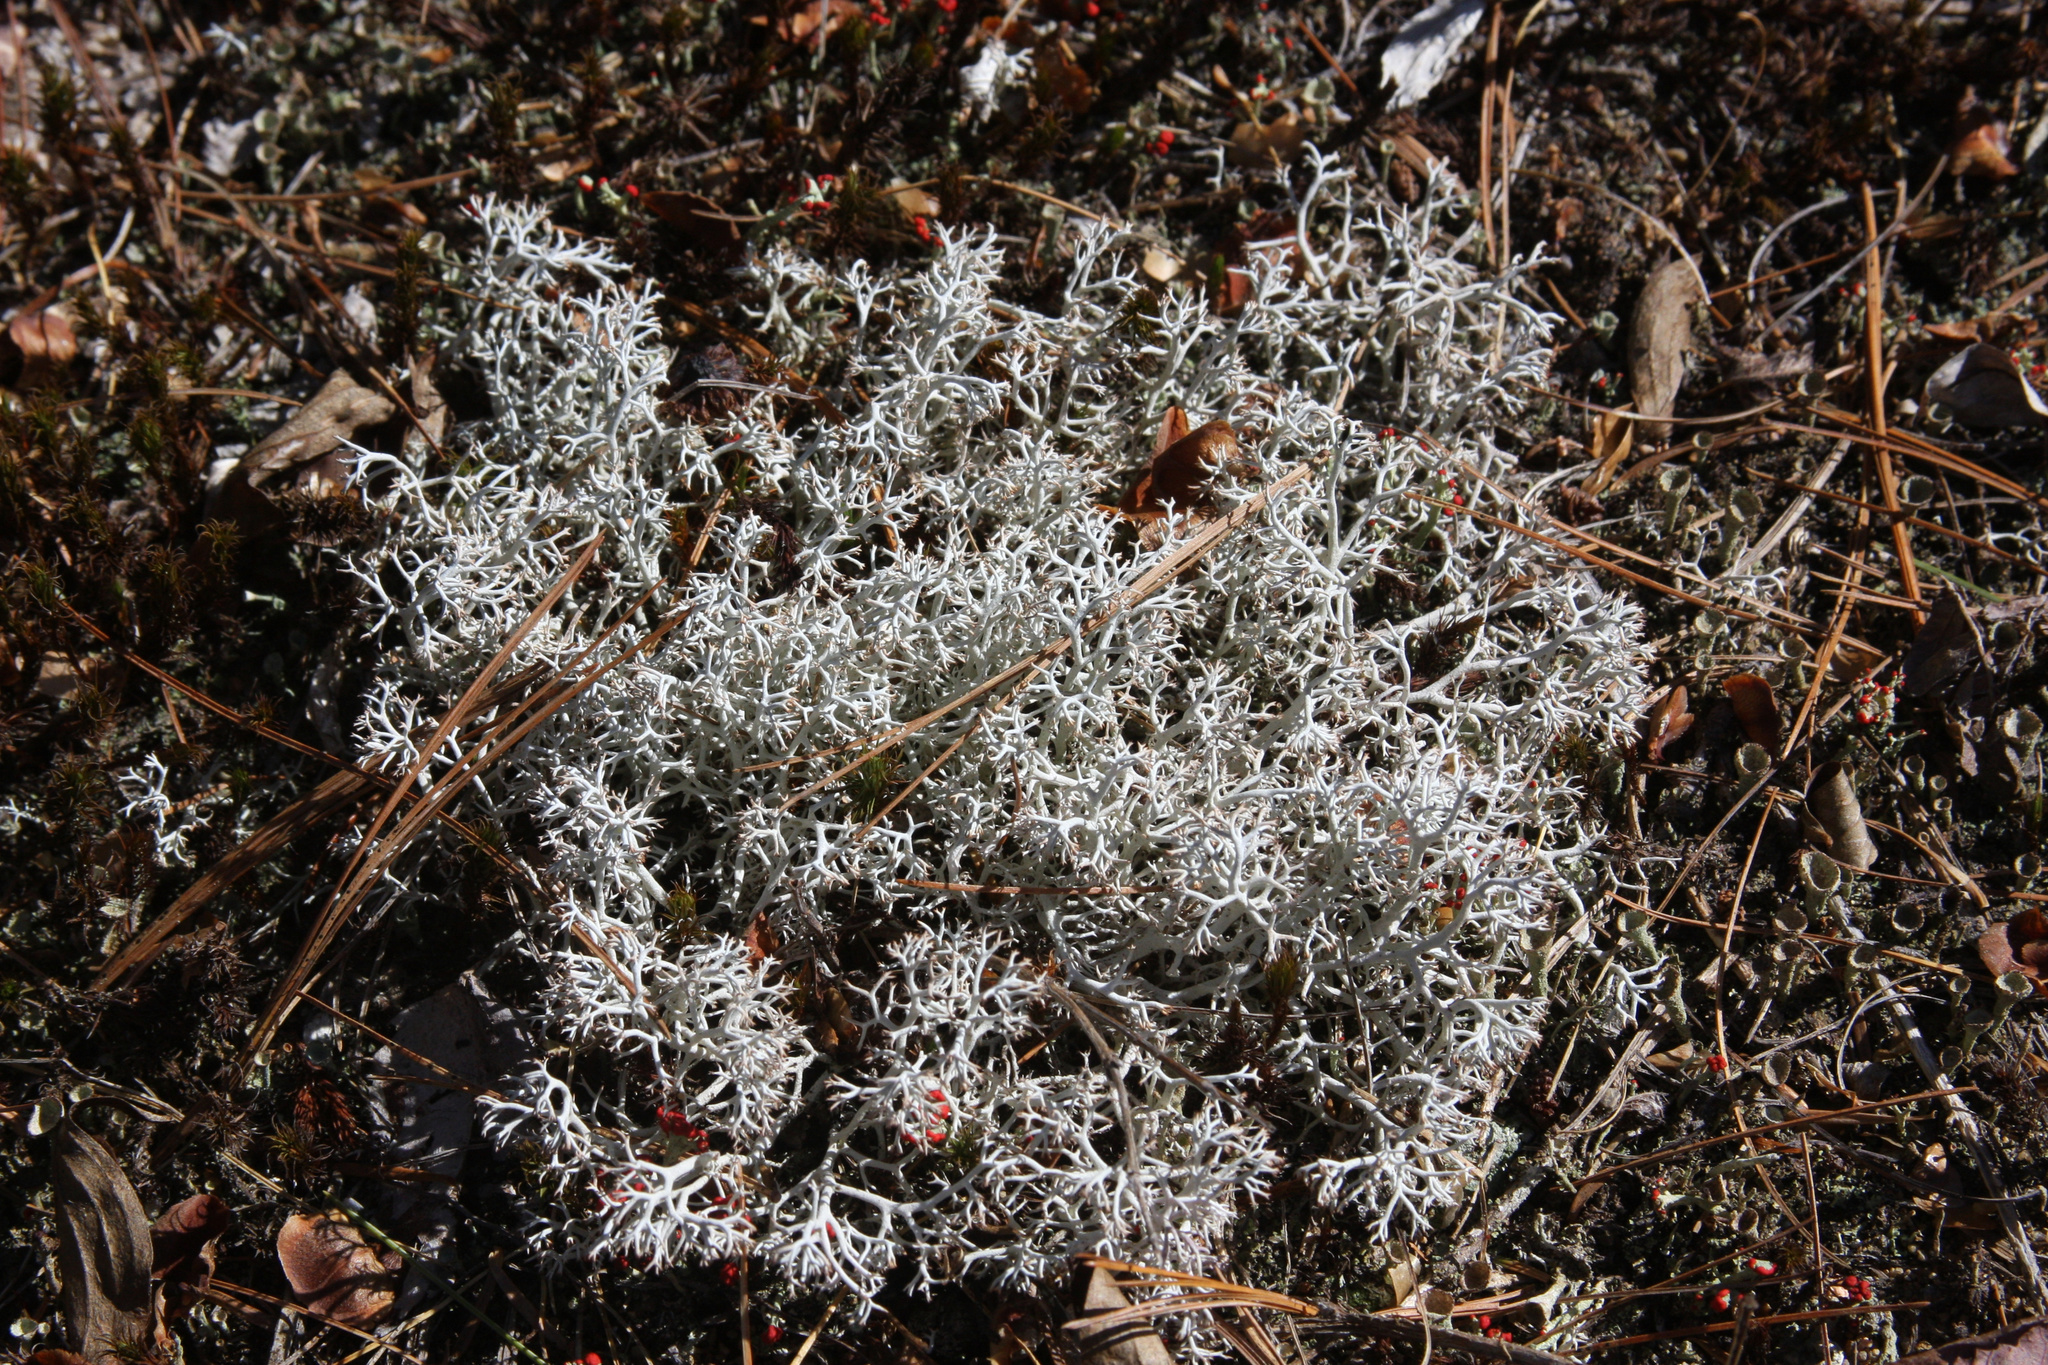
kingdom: Fungi
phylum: Ascomycota
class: Lecanoromycetes
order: Lecanorales
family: Cladoniaceae
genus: Cladonia
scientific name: Cladonia rangiferina
